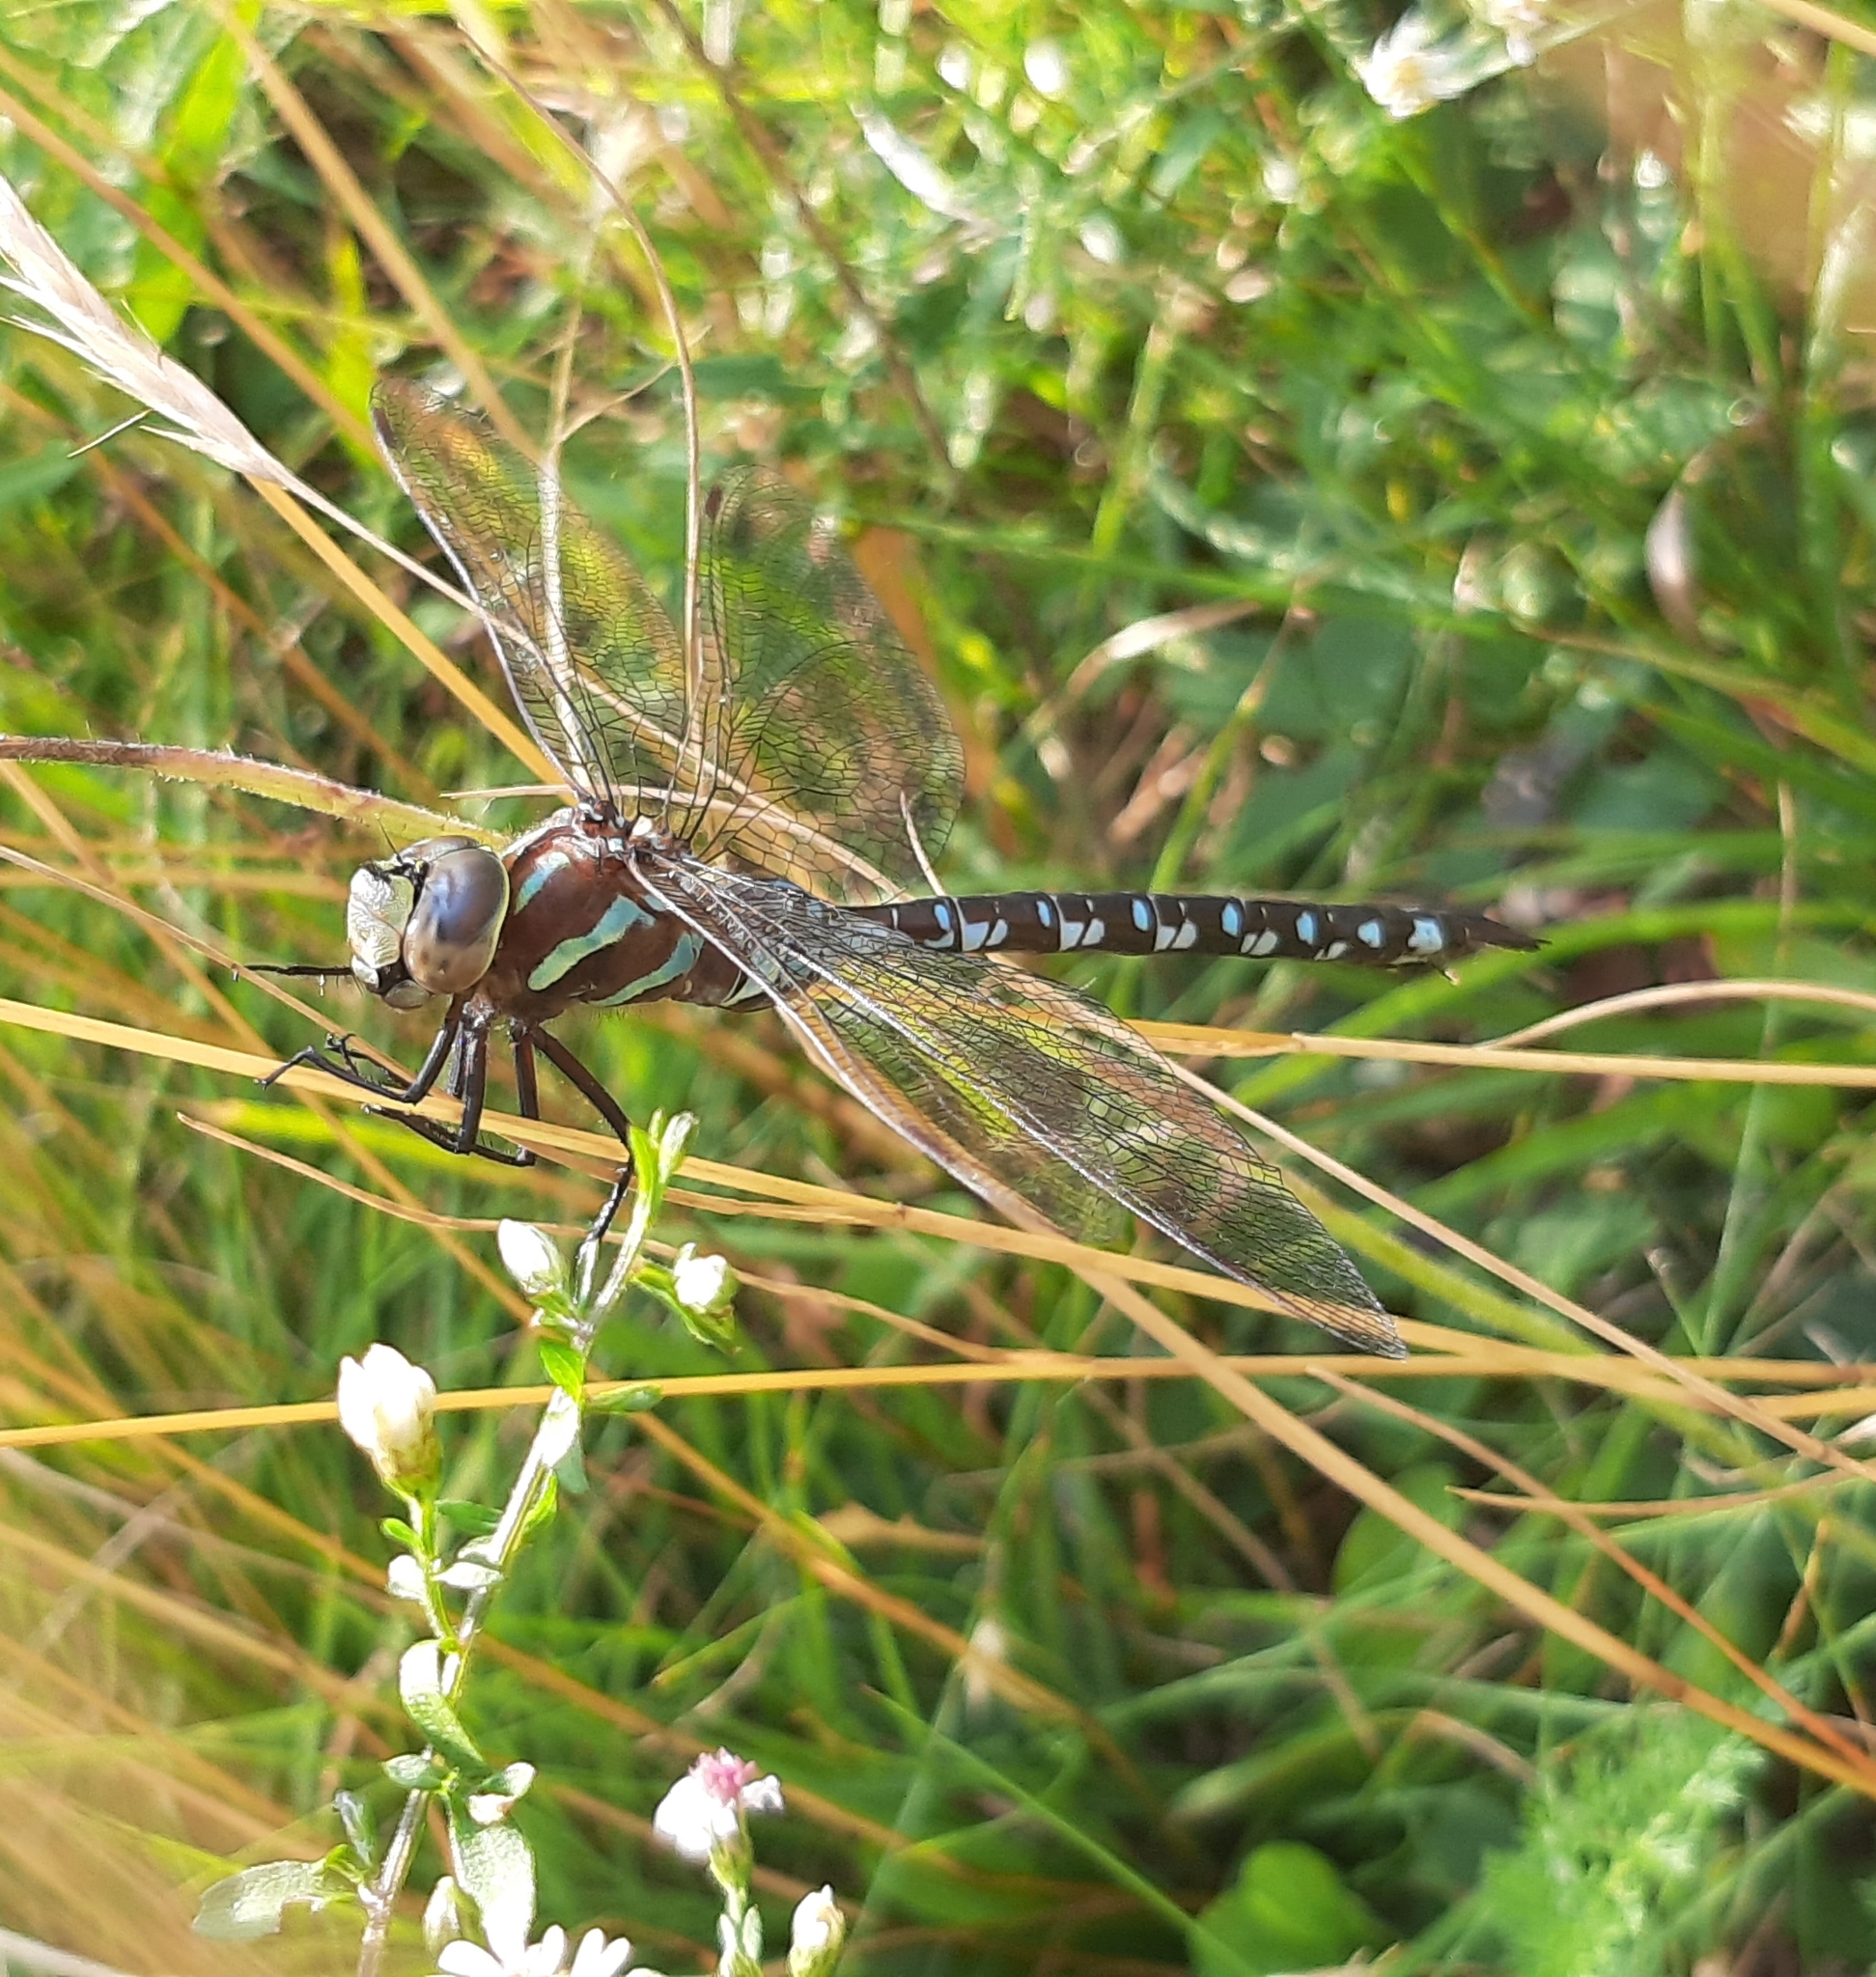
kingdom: Animalia
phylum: Arthropoda
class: Insecta
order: Odonata
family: Aeshnidae
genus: Aeshna
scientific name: Aeshna constricta
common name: Lance-tipped darner
